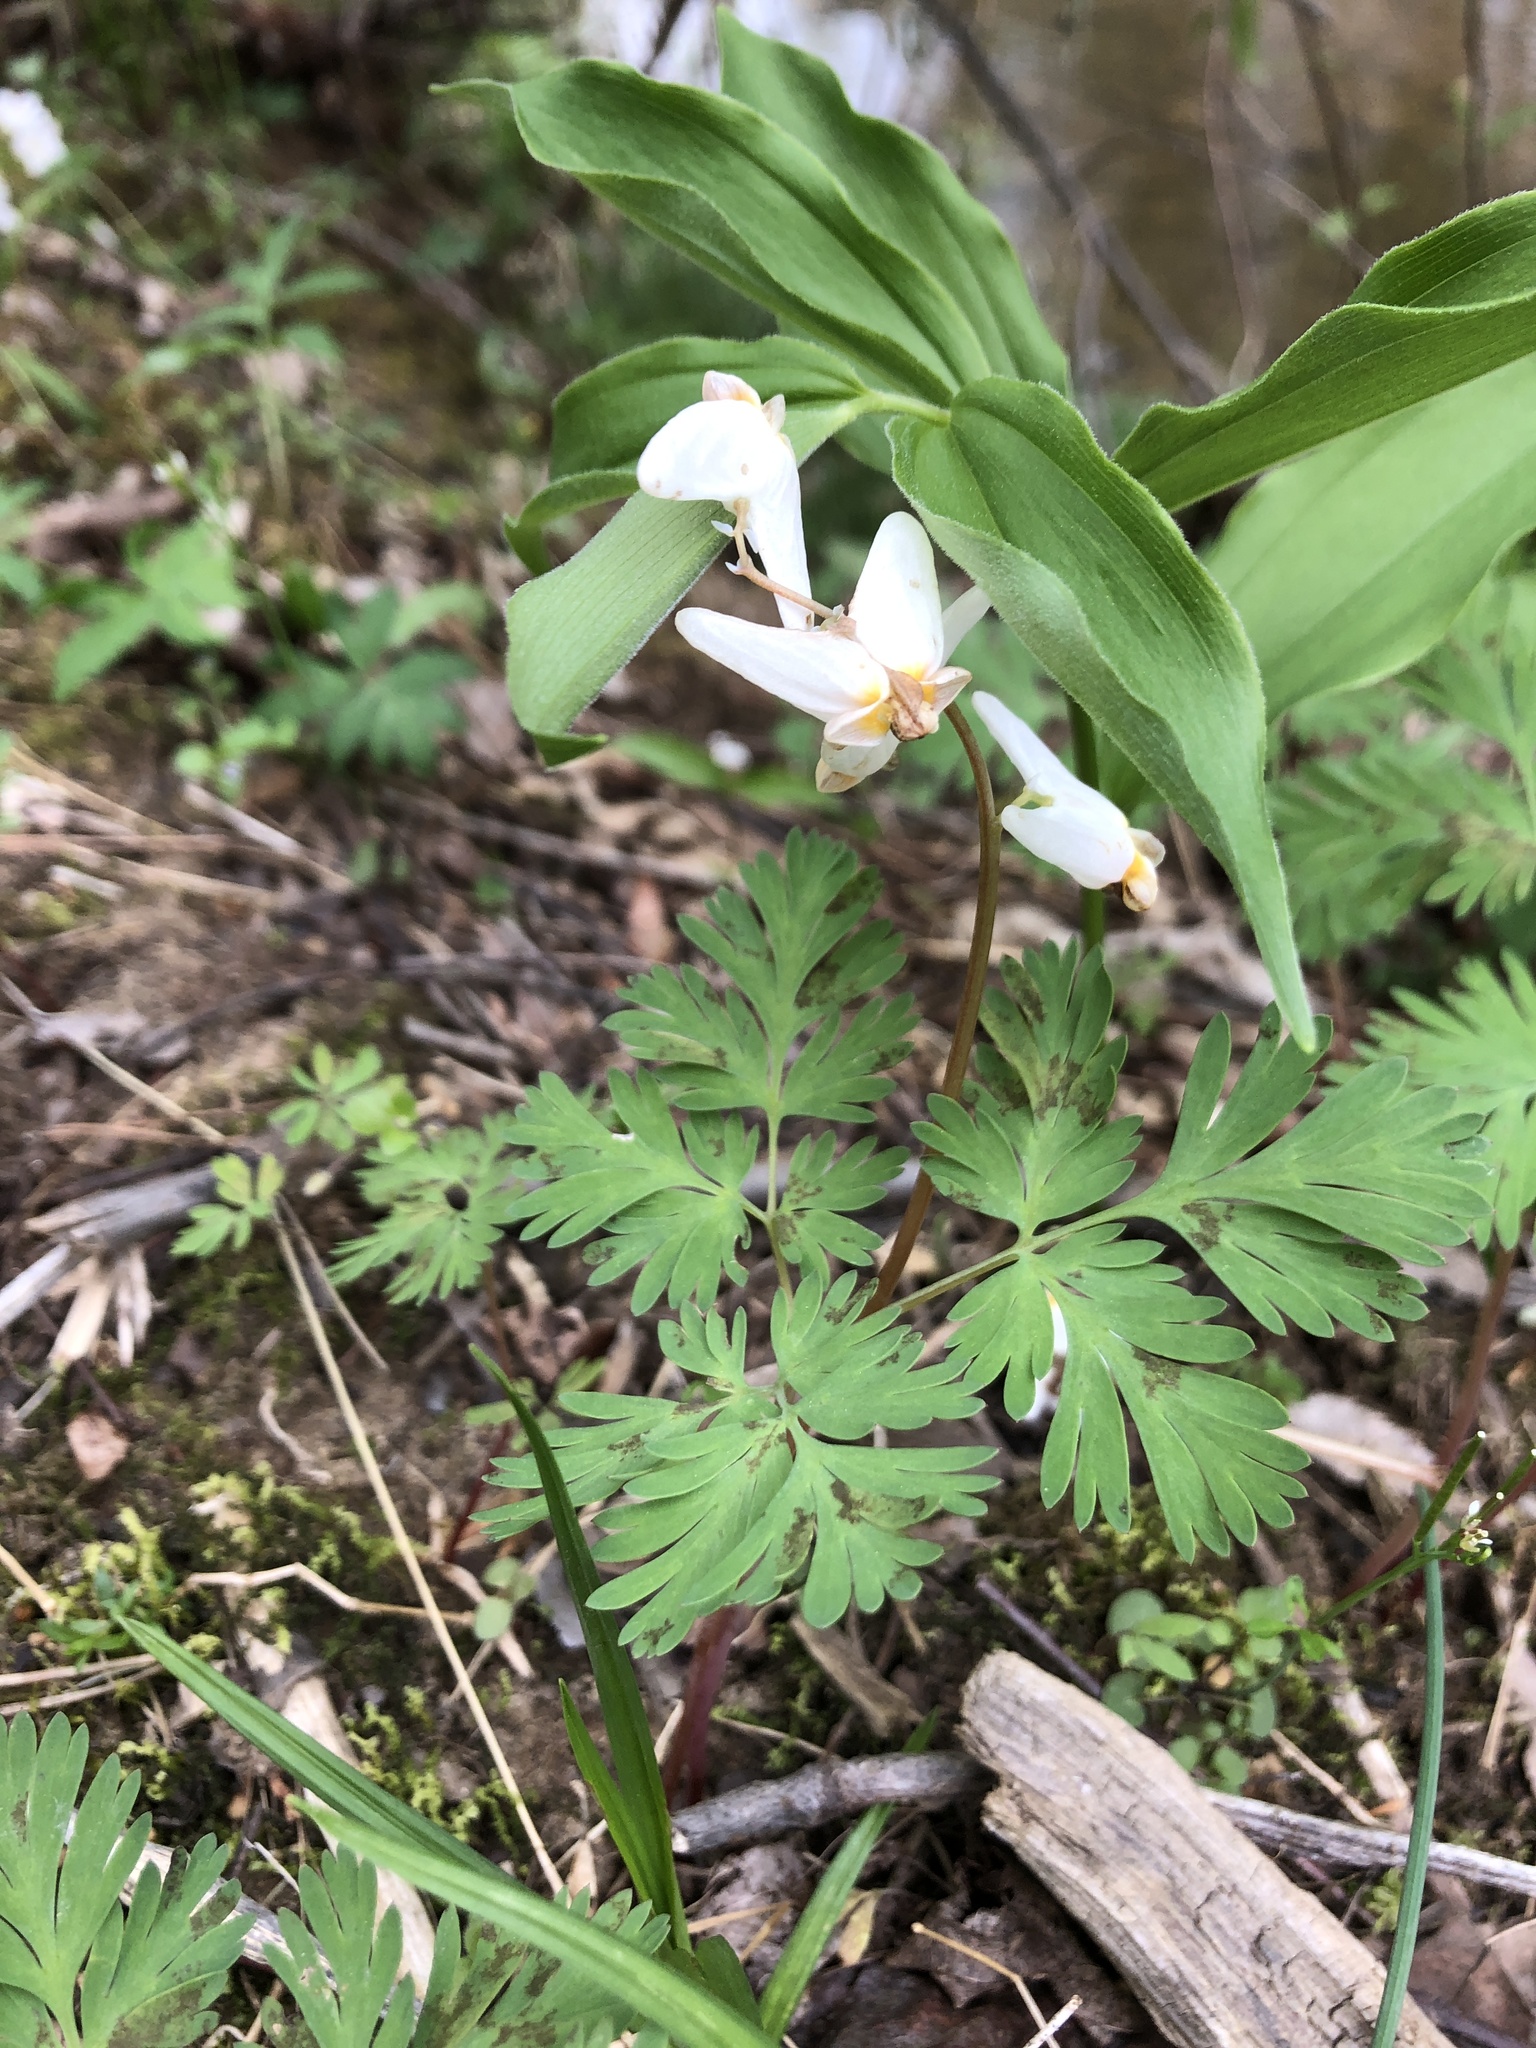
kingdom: Plantae
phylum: Tracheophyta
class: Magnoliopsida
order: Ranunculales
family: Papaveraceae
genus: Dicentra
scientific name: Dicentra cucullaria
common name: Dutchman's breeches
